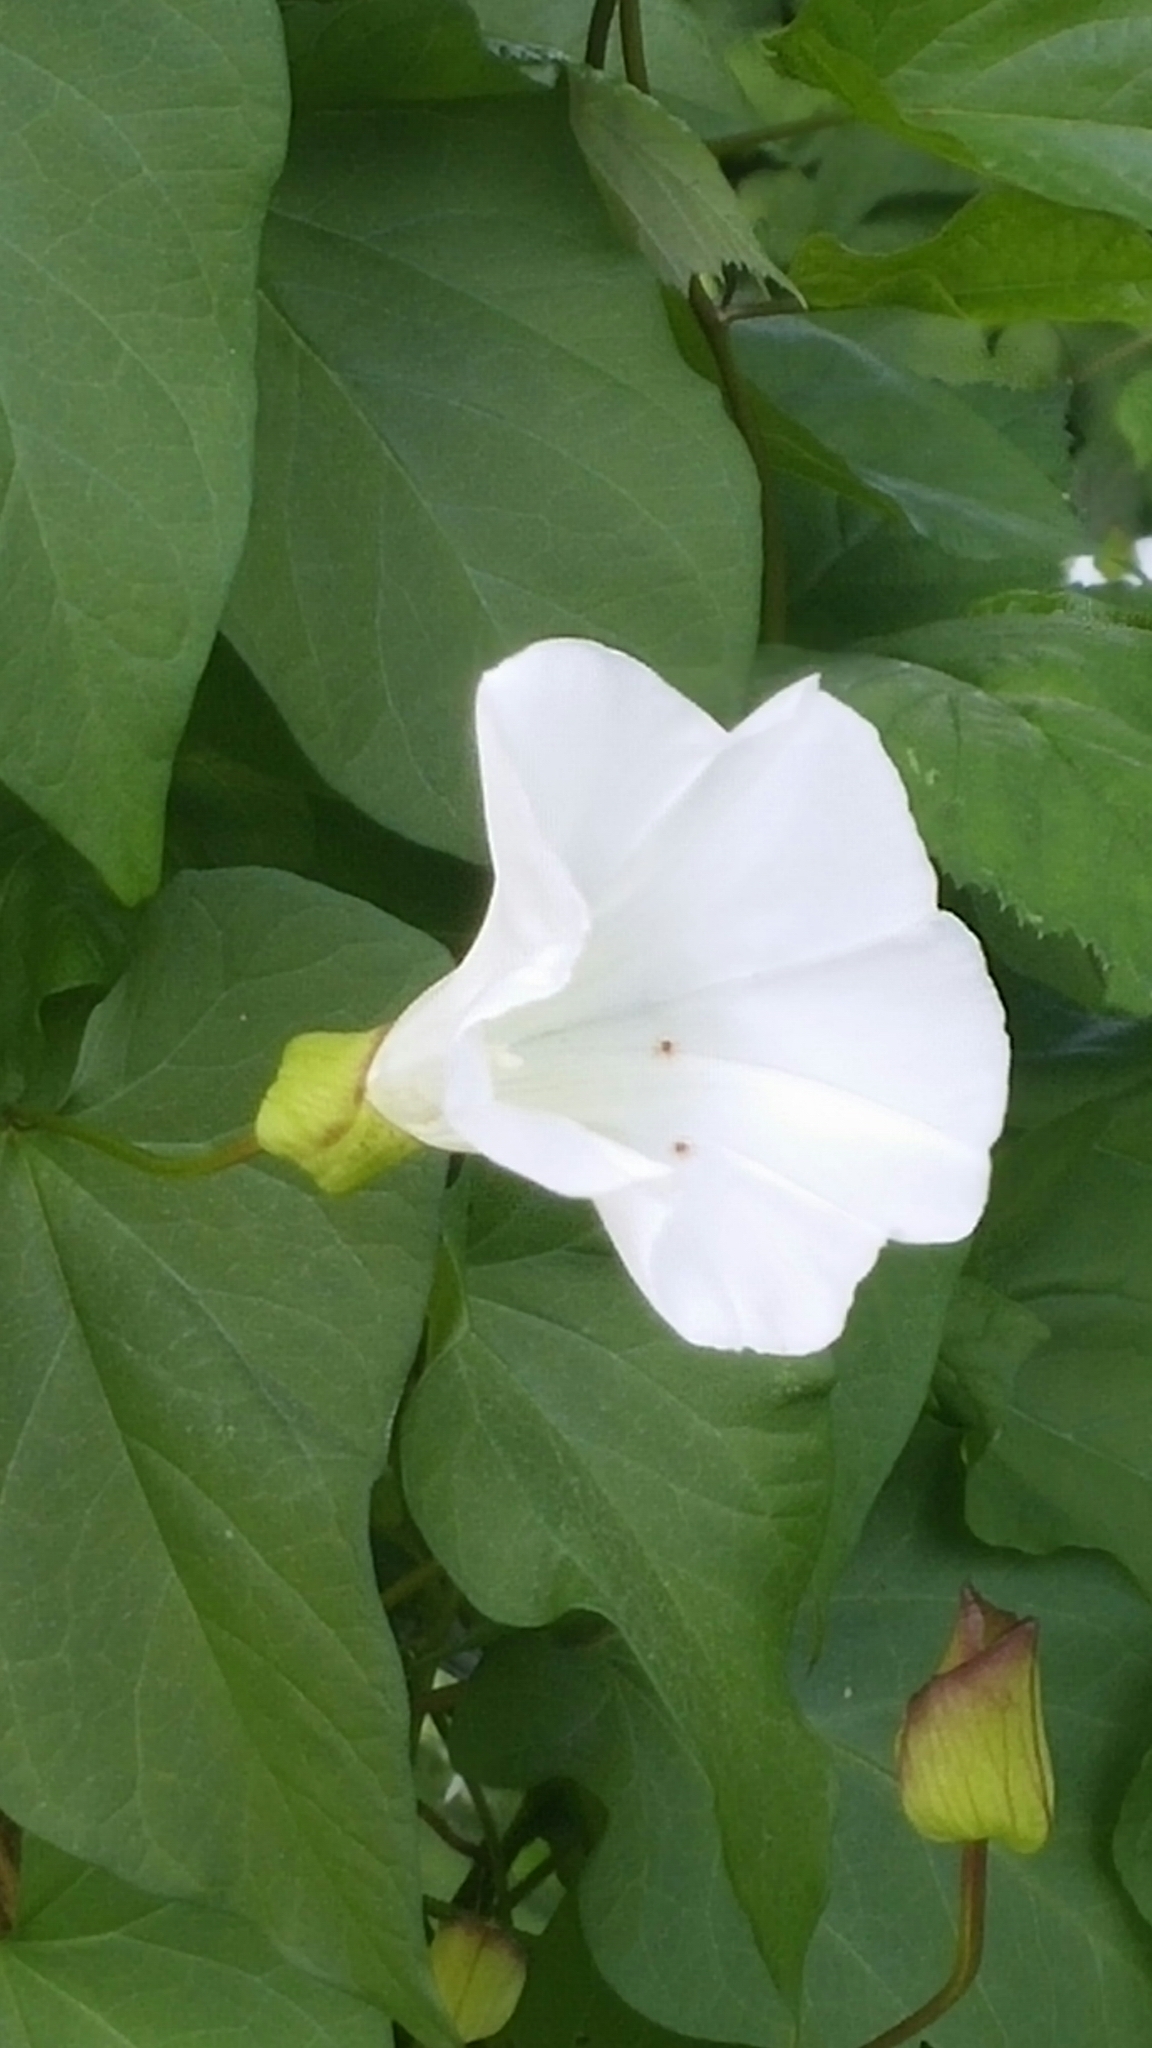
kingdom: Plantae
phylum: Tracheophyta
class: Magnoliopsida
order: Solanales
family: Convolvulaceae
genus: Calystegia
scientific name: Calystegia silvatica
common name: Large bindweed
